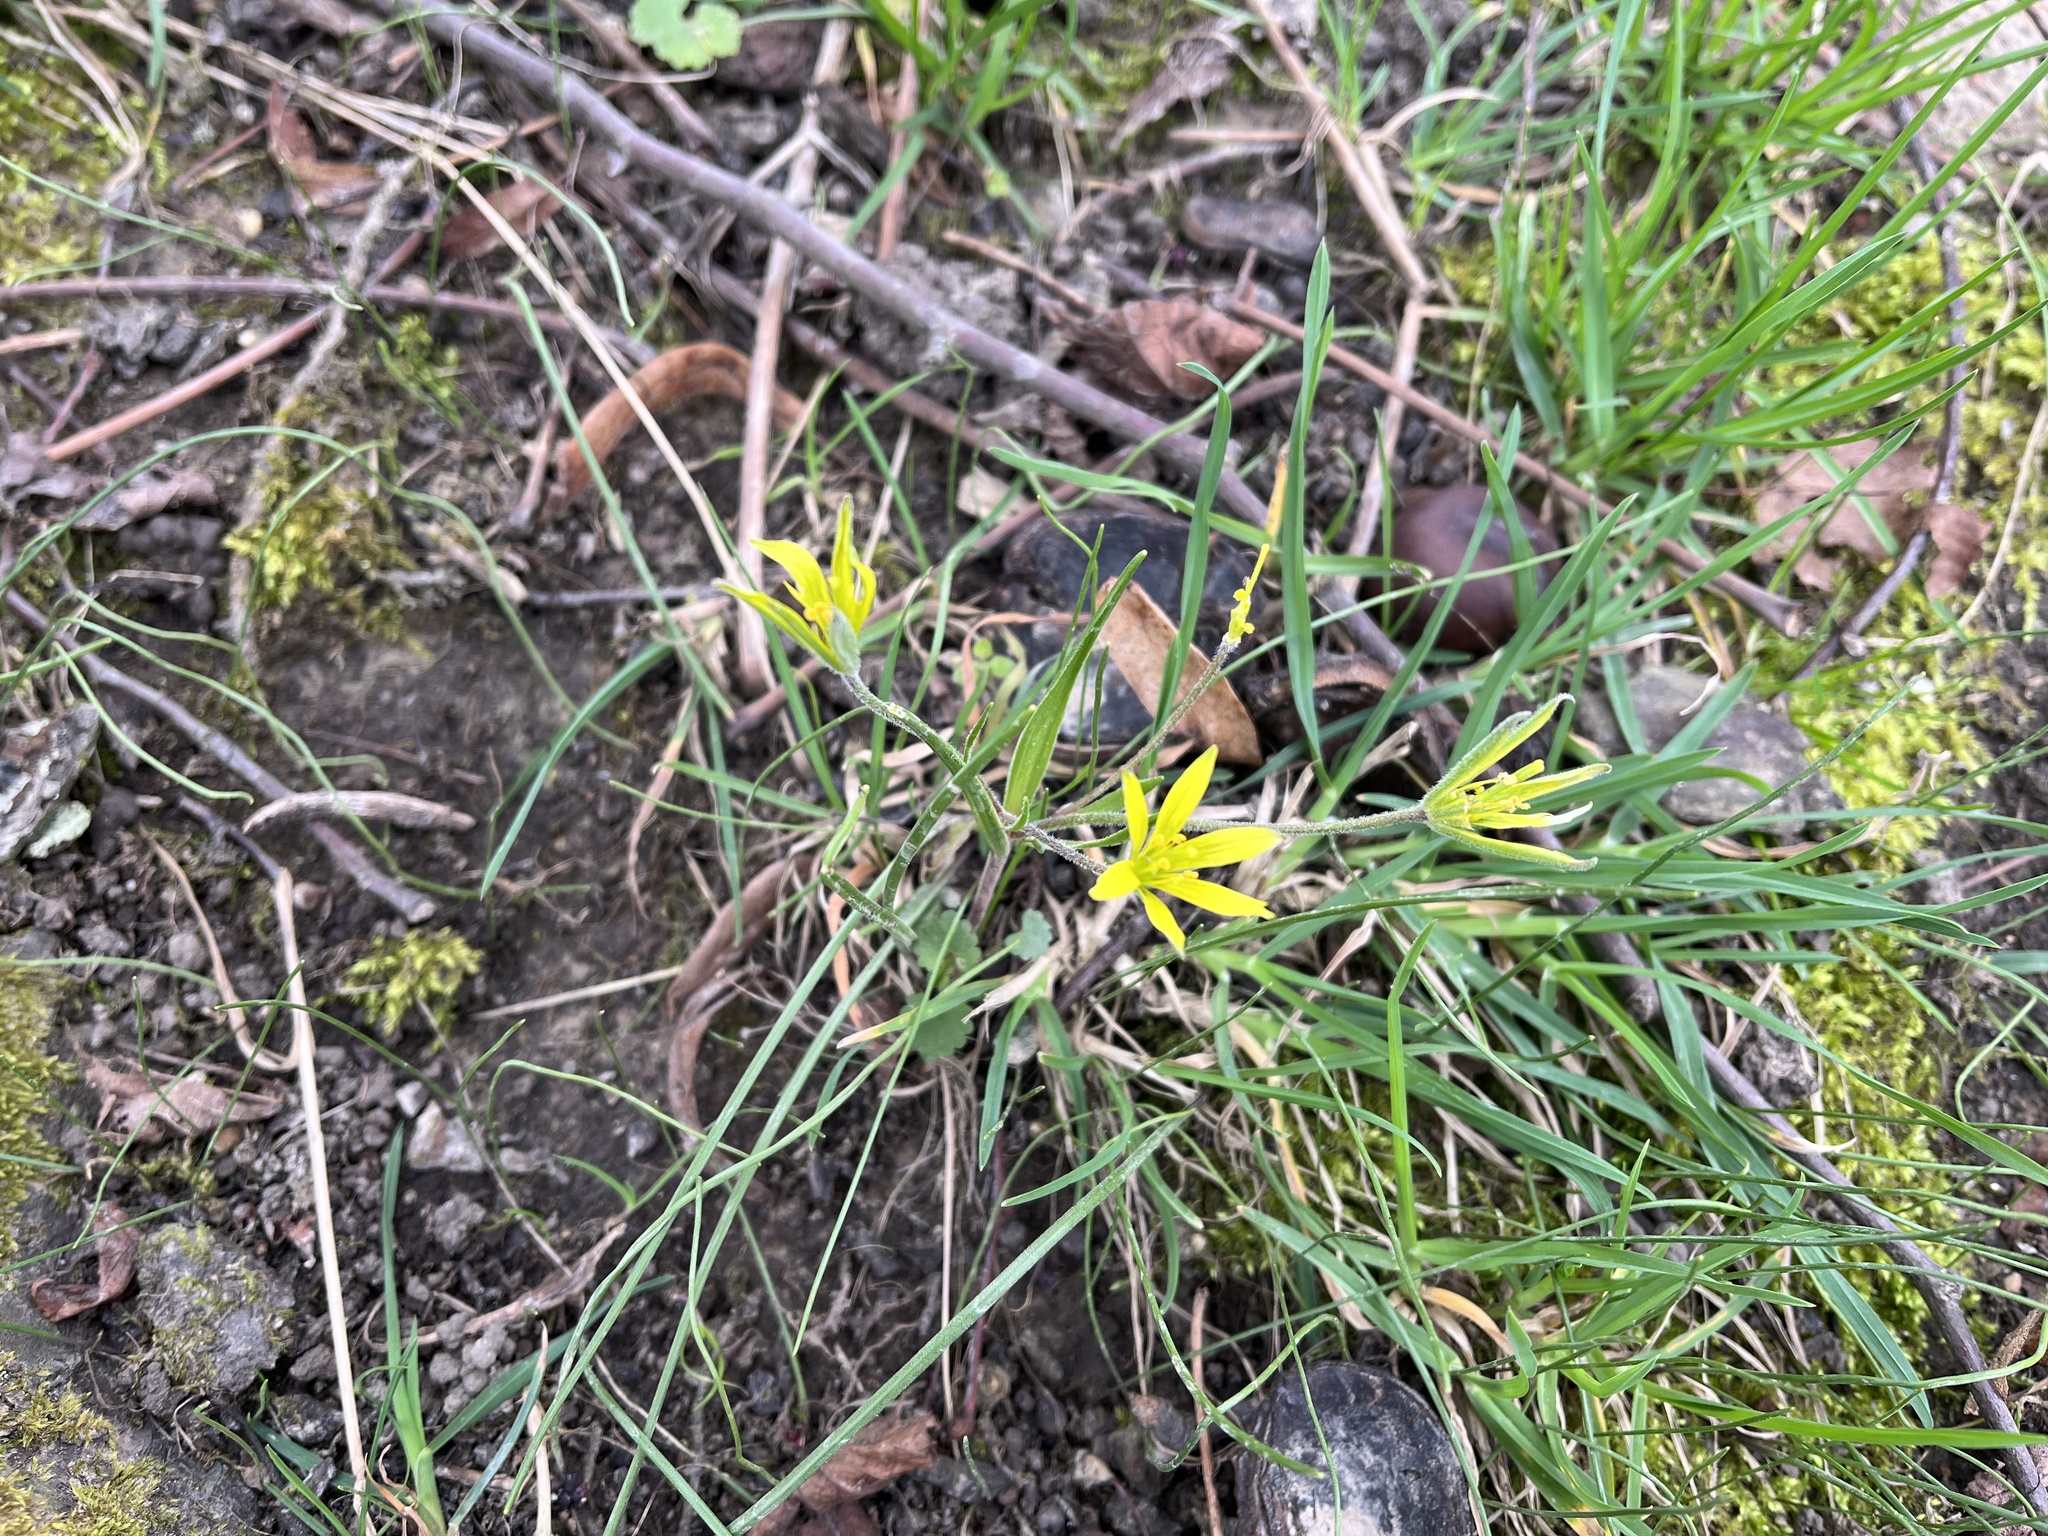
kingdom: Plantae
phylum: Tracheophyta
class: Liliopsida
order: Liliales
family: Liliaceae
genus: Gagea
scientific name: Gagea villosa
